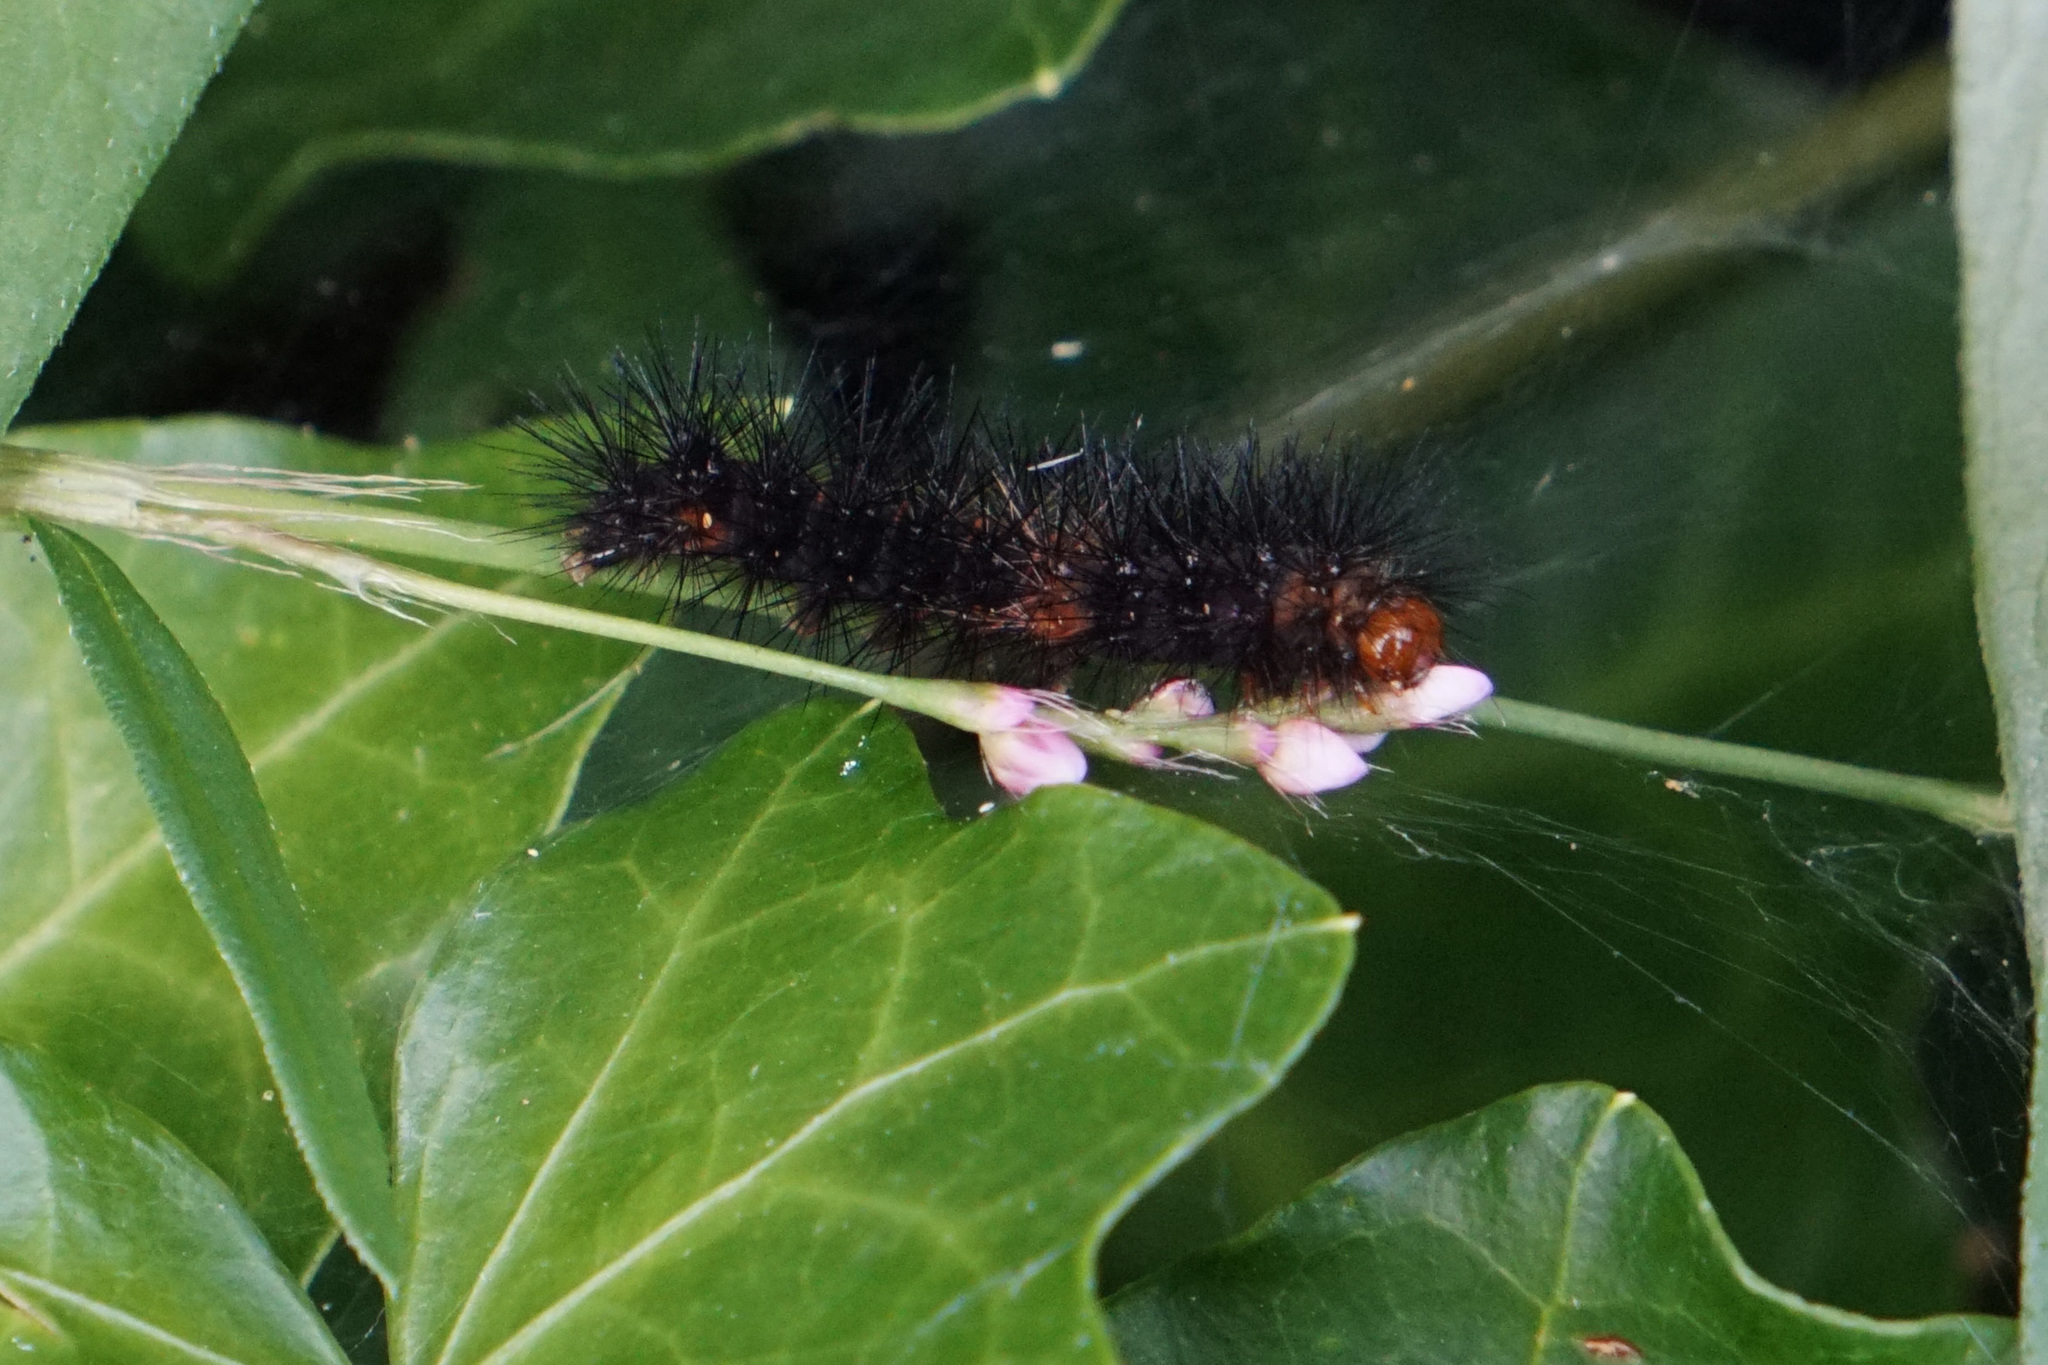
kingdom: Animalia
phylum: Arthropoda
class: Insecta
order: Lepidoptera
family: Erebidae
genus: Hypercompe
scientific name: Hypercompe scribonia
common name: Giant leopard moth
